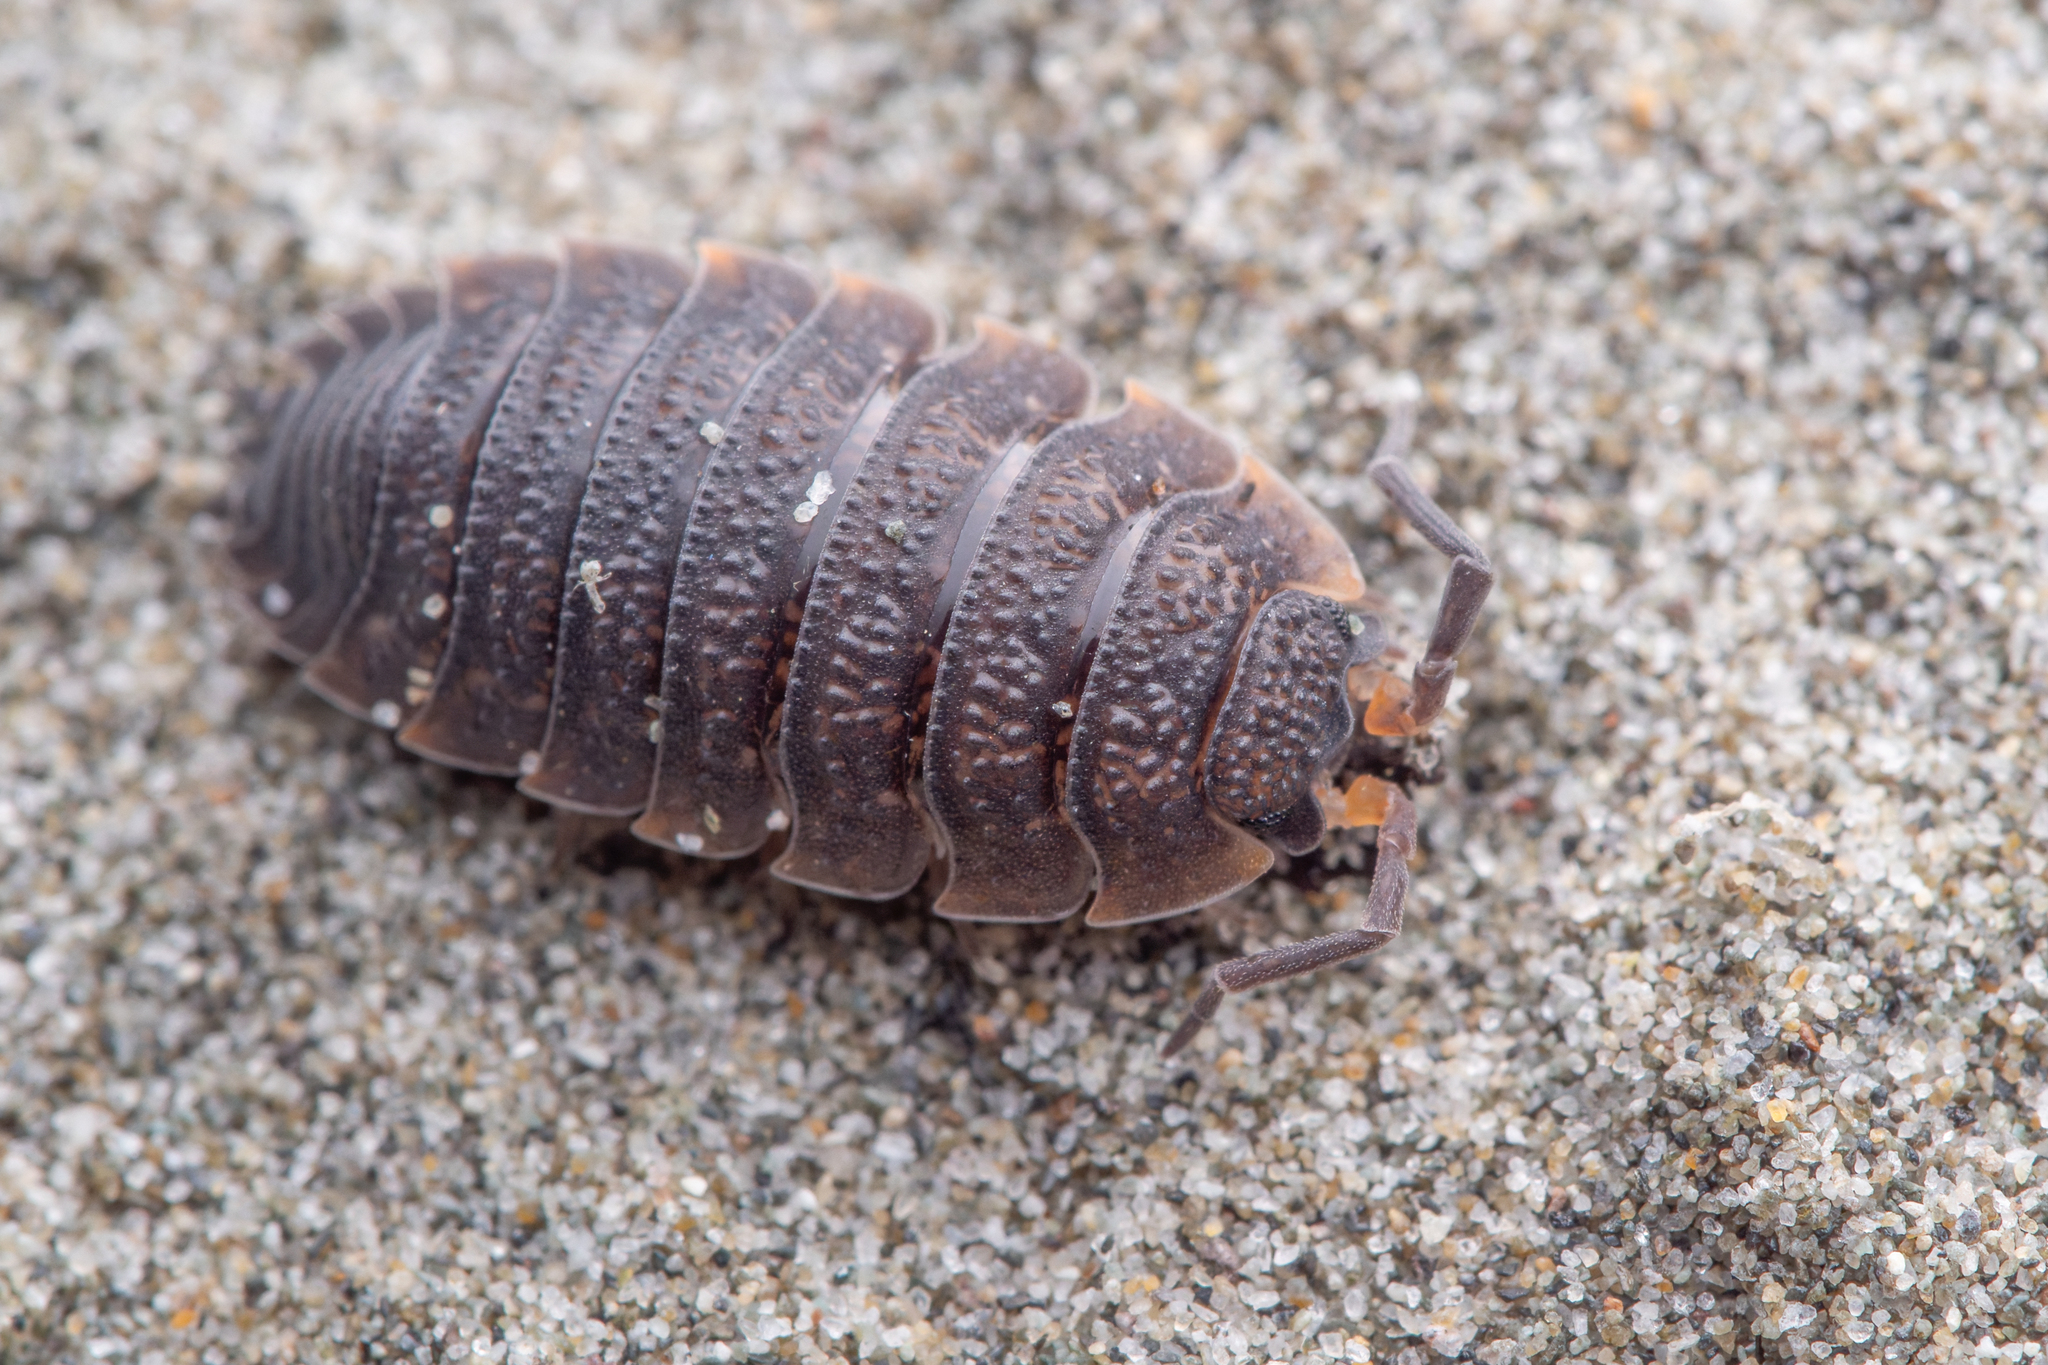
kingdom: Animalia
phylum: Arthropoda
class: Malacostraca
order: Isopoda
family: Porcellionidae
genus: Porcellio
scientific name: Porcellio scaber
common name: Common rough woodlouse
